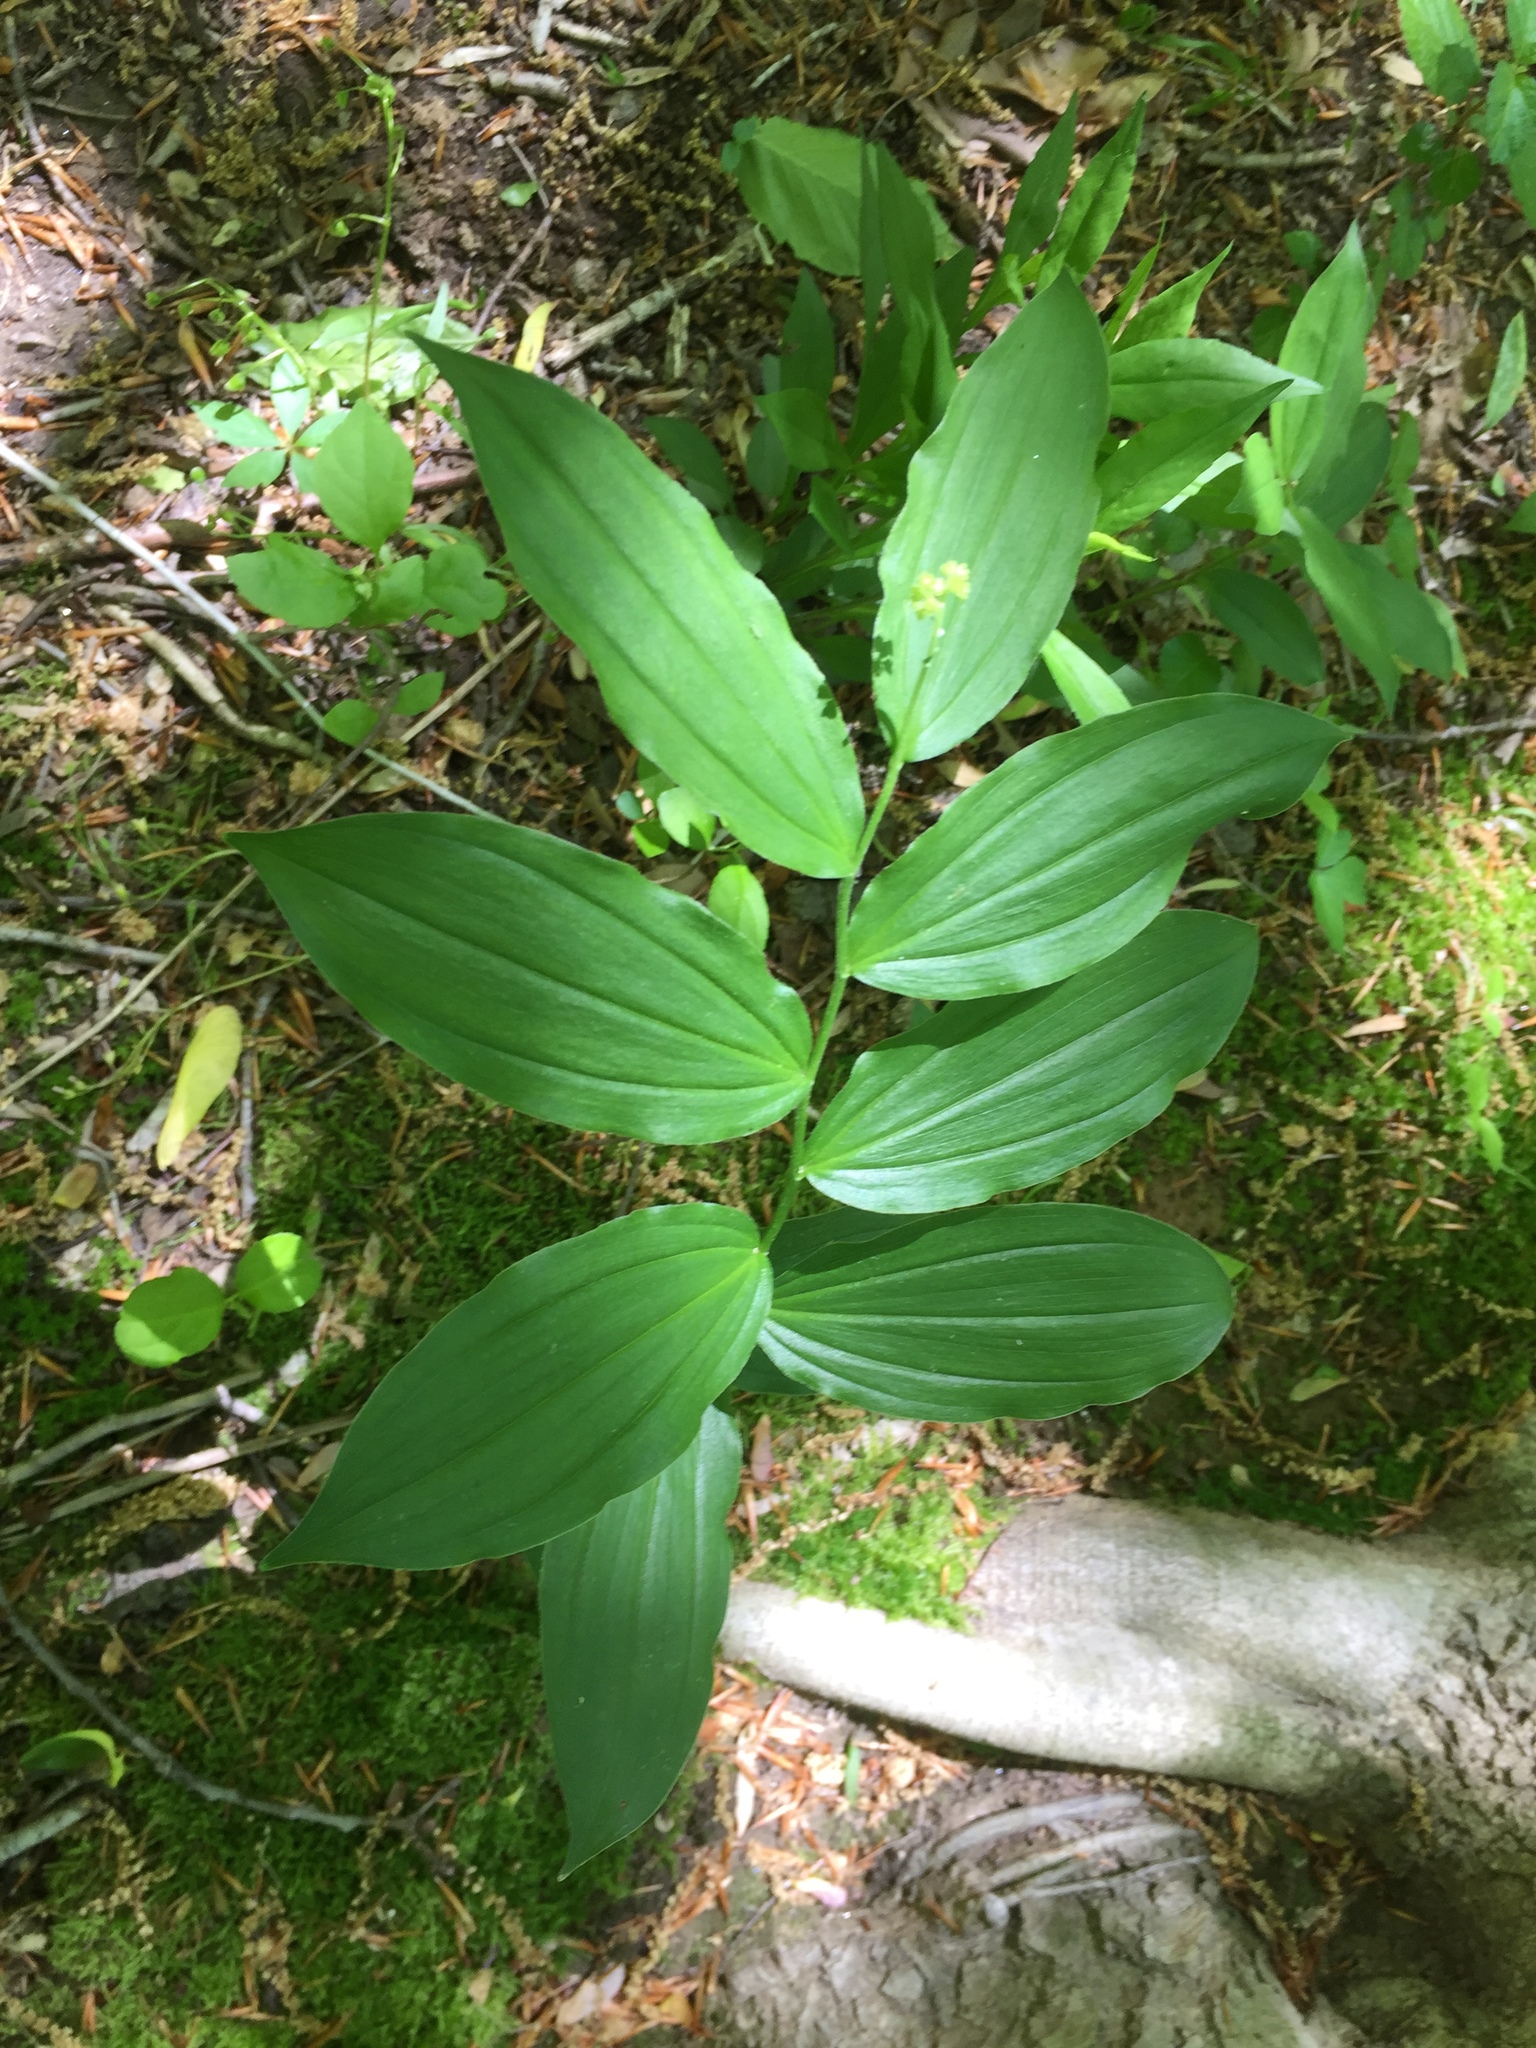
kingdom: Plantae
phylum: Tracheophyta
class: Liliopsida
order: Asparagales
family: Asparagaceae
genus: Maianthemum
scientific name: Maianthemum racemosum
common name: False spikenard
